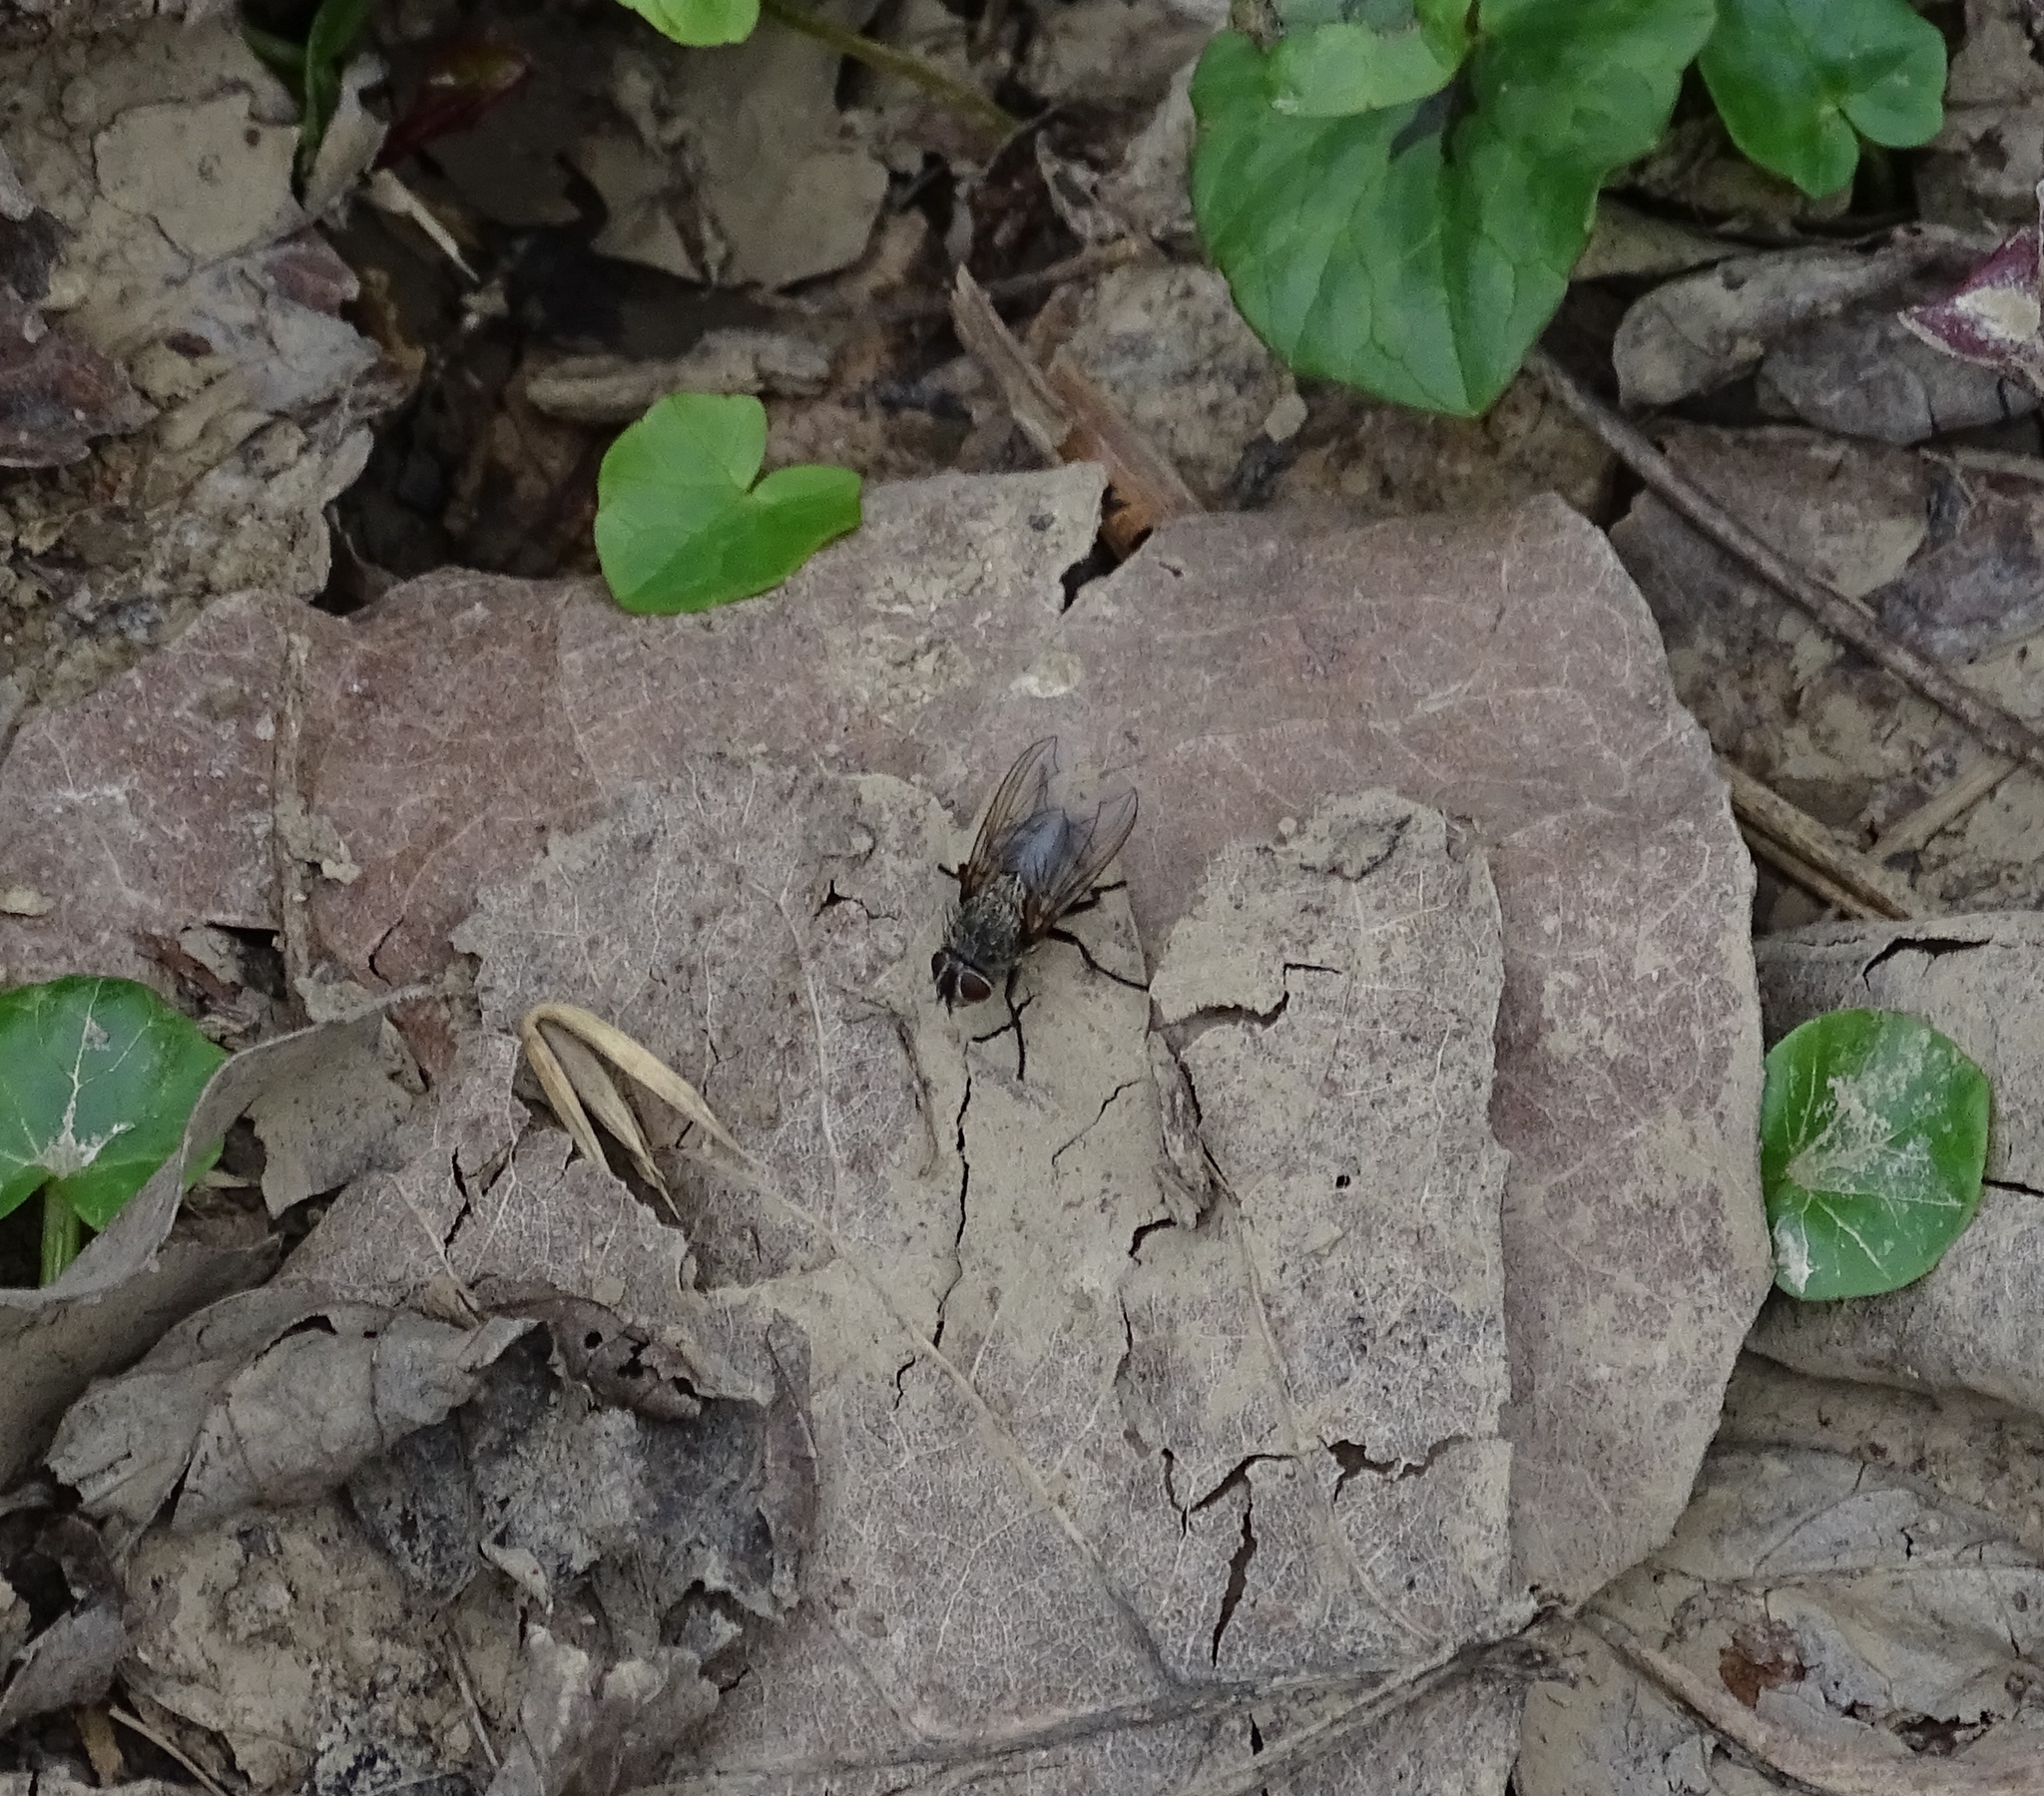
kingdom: Animalia
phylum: Arthropoda
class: Insecta
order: Diptera
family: Polleniidae
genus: Pollenia
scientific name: Pollenia
